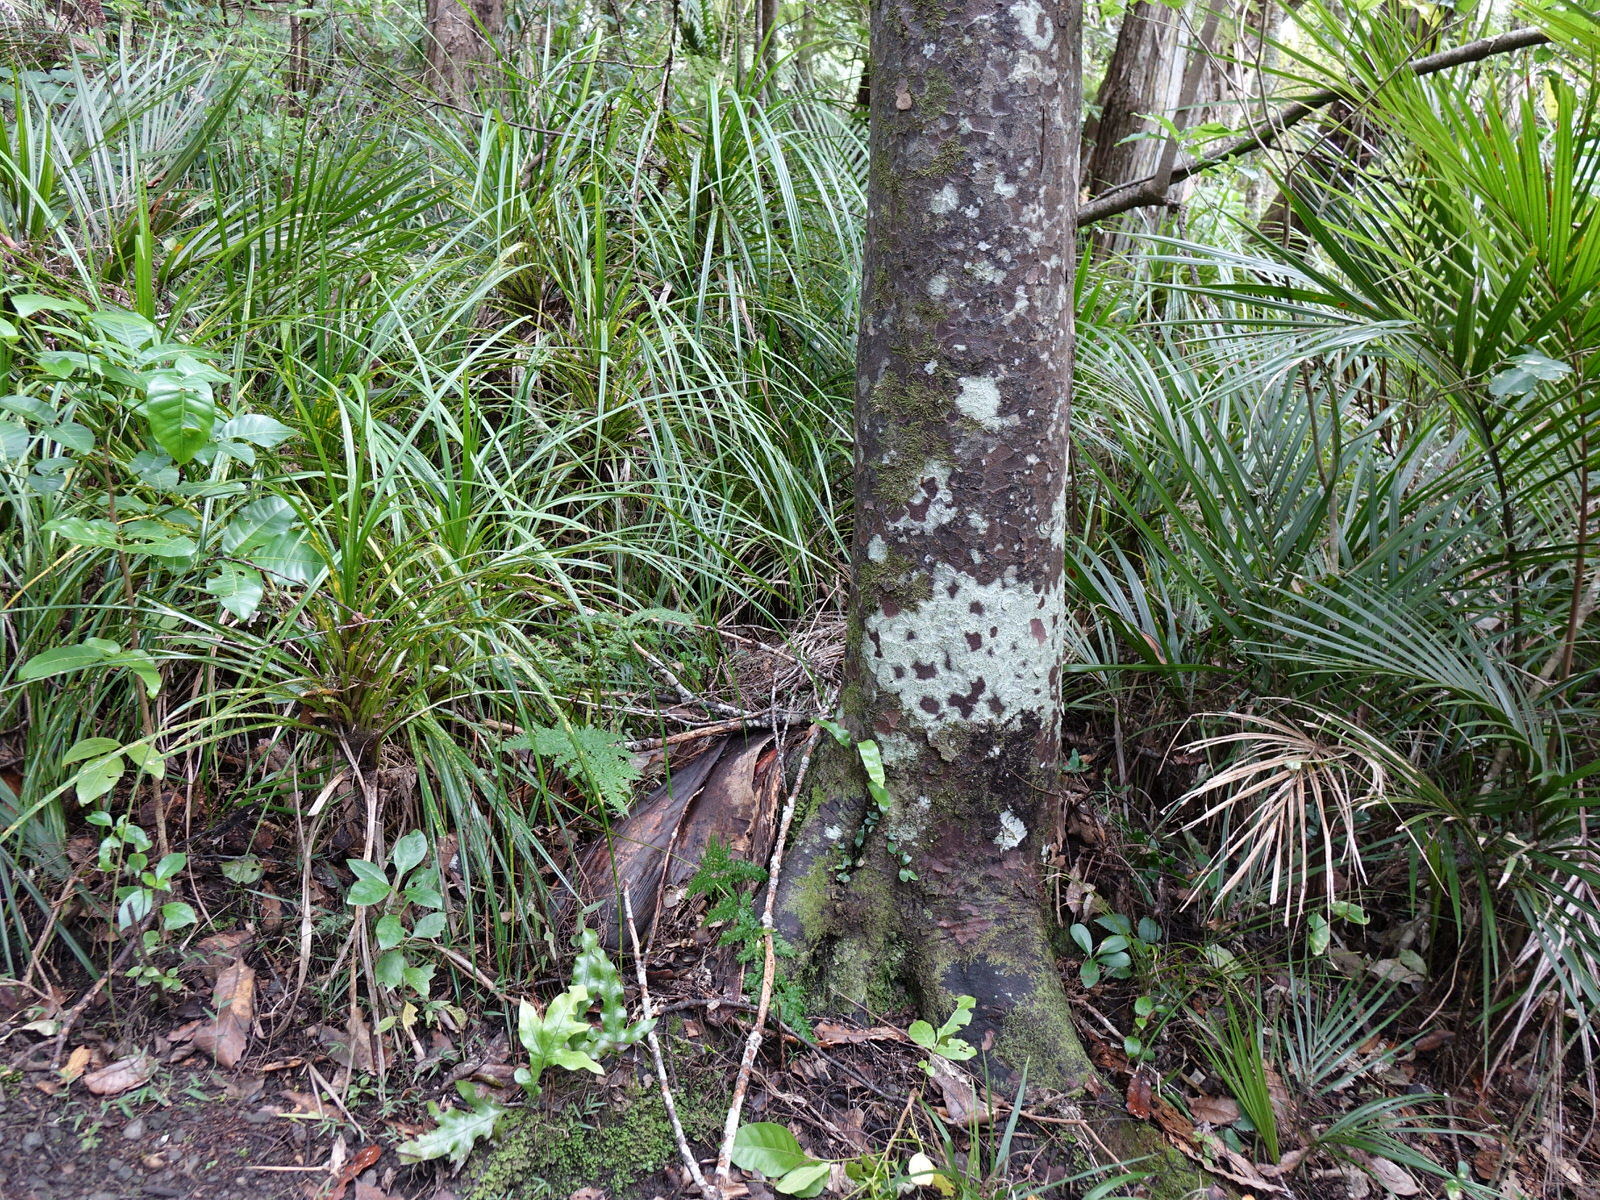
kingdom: Plantae
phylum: Tracheophyta
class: Pinopsida
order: Pinales
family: Podocarpaceae
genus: Prumnopitys
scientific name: Prumnopitys taxifolia
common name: Matai
